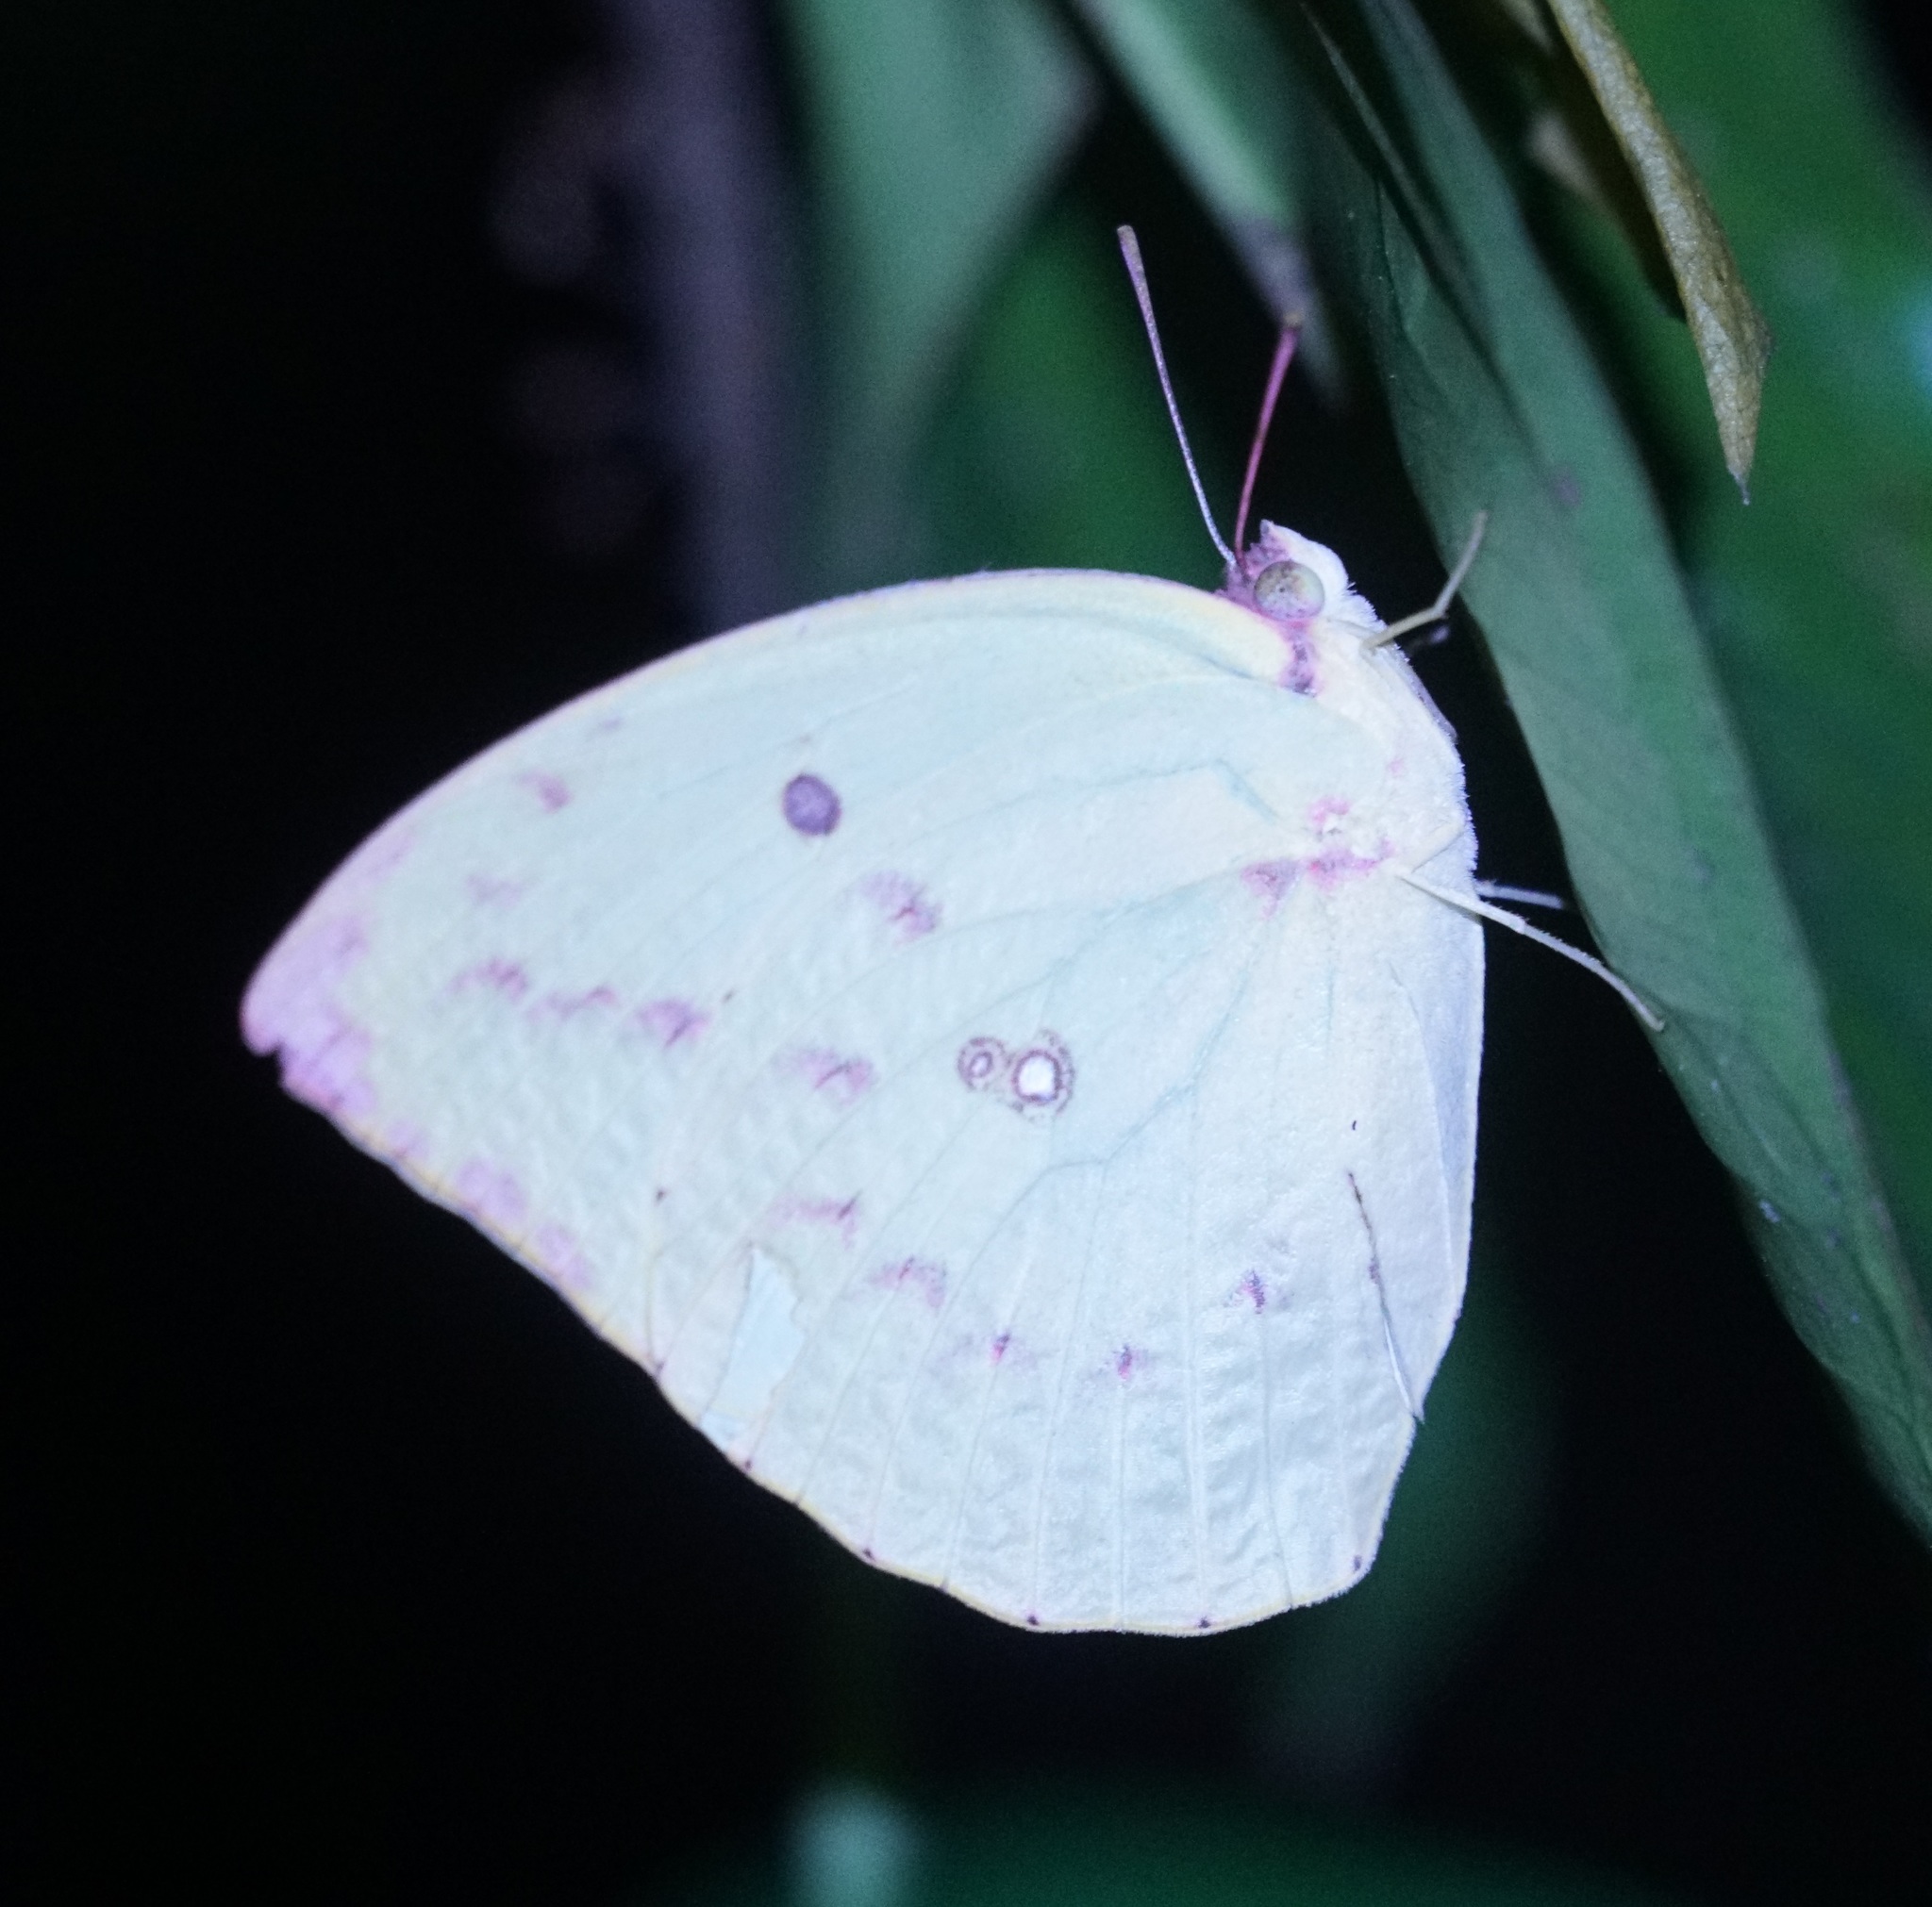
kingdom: Animalia
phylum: Arthropoda
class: Insecta
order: Lepidoptera
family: Pieridae
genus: Catopsilia
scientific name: Catopsilia pomona
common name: Common emigrant
